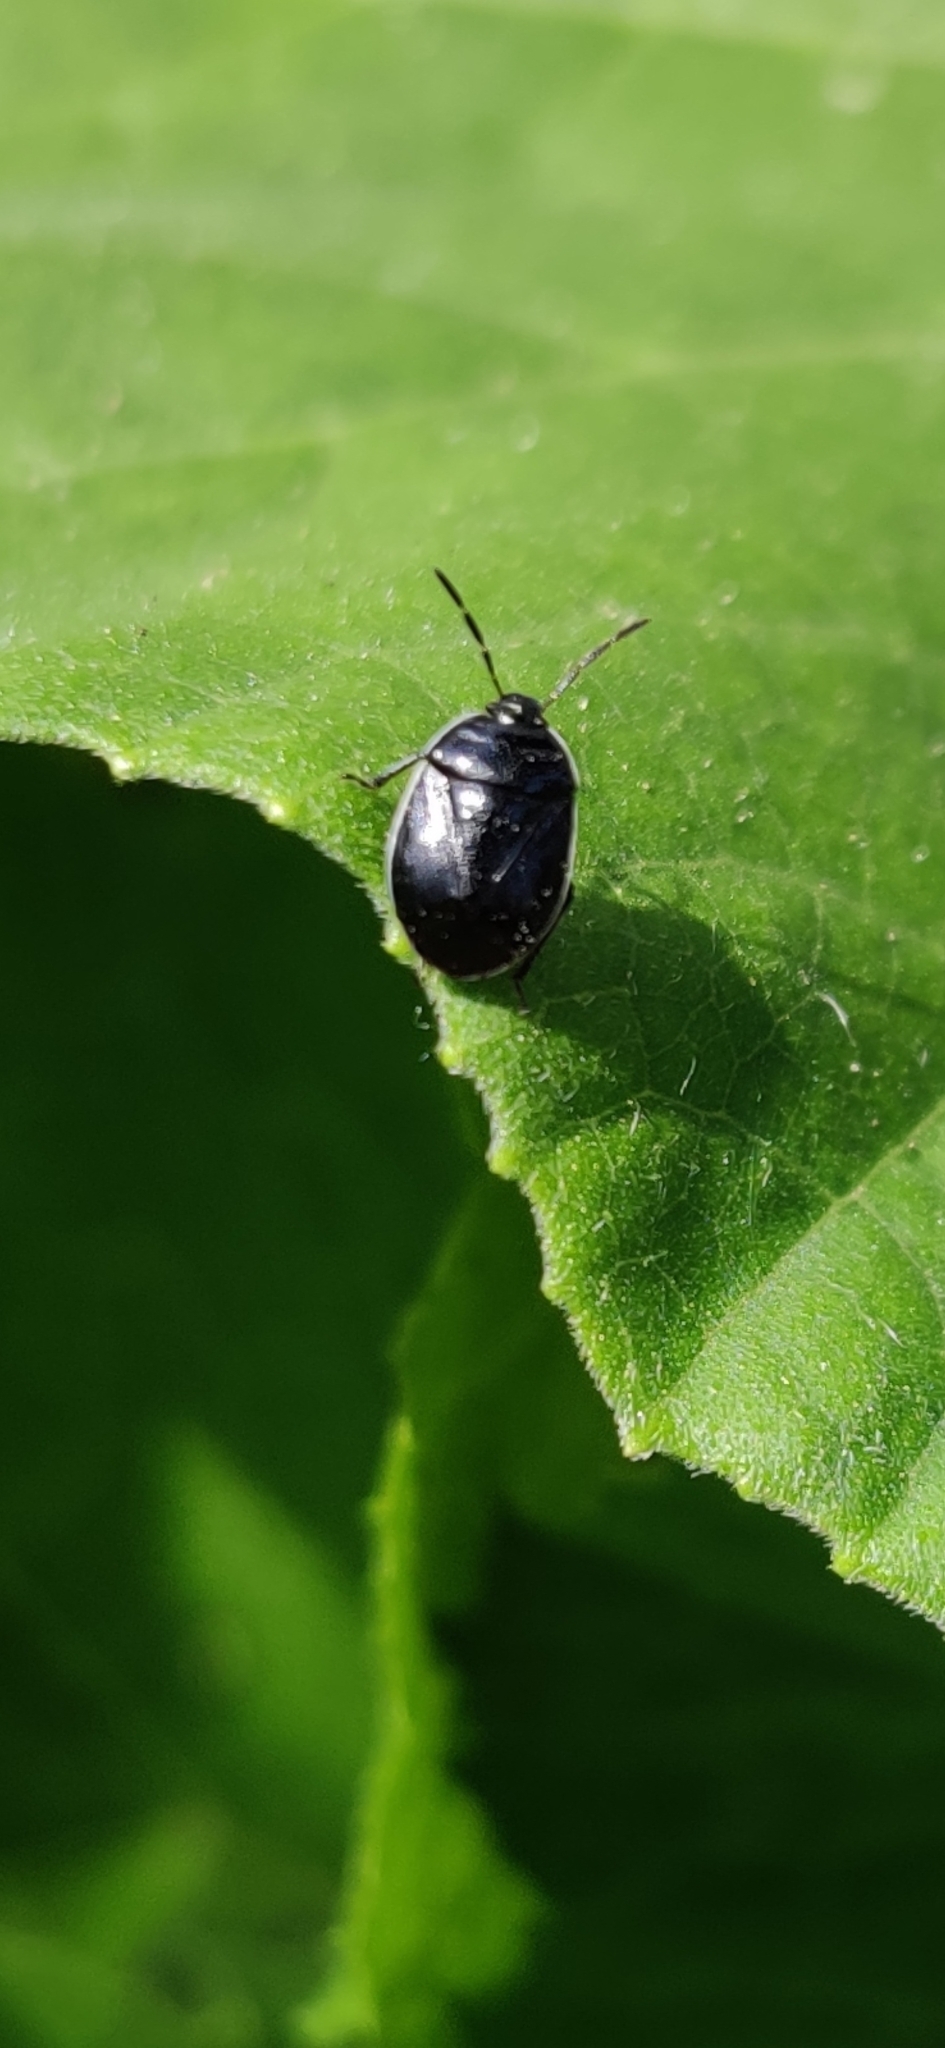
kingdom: Animalia
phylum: Arthropoda
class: Insecta
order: Hemiptera
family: Cydnidae
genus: Sehirus
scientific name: Sehirus cinctus
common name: White-margined burrower bug
